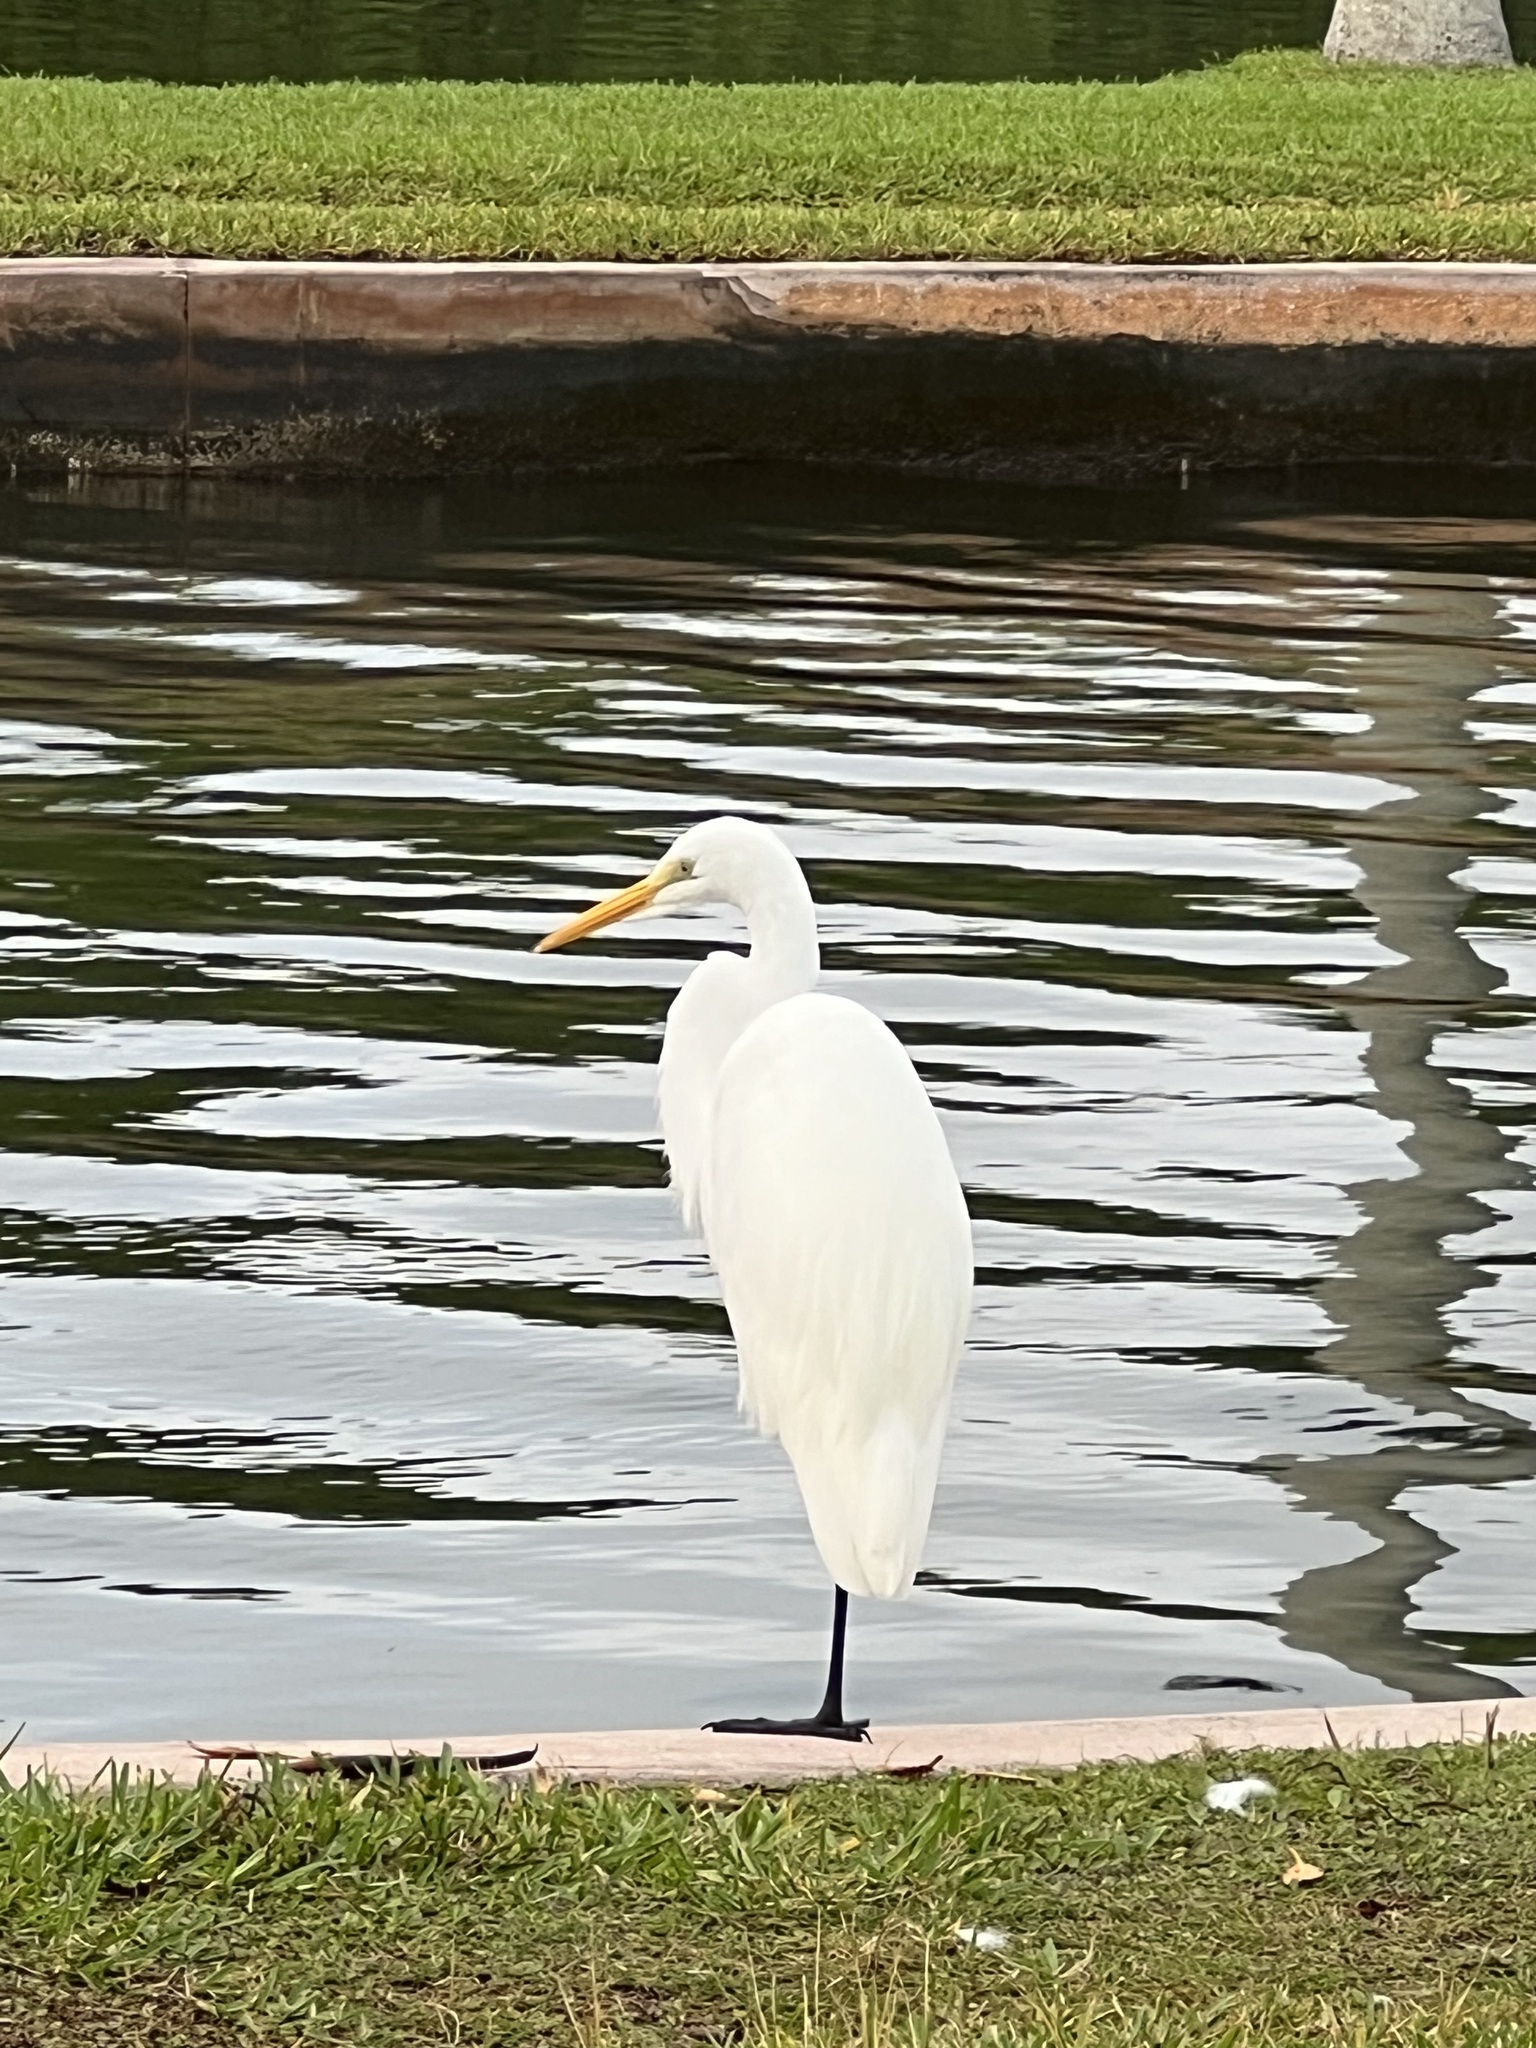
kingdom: Animalia
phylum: Chordata
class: Aves
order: Pelecaniformes
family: Ardeidae
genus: Ardea
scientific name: Ardea alba
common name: Great egret
